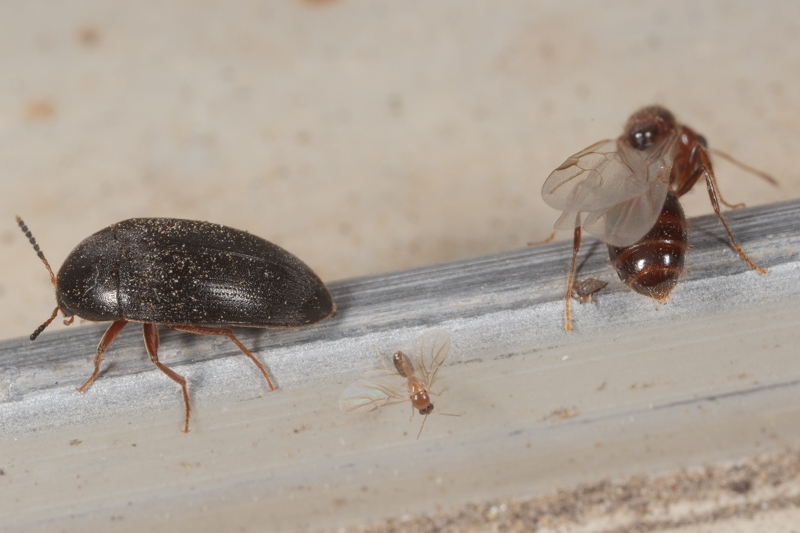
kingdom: Animalia
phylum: Arthropoda
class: Insecta
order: Coleoptera
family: Tetratomidae
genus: Eustrophopsis
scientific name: Eustrophopsis bicolor
